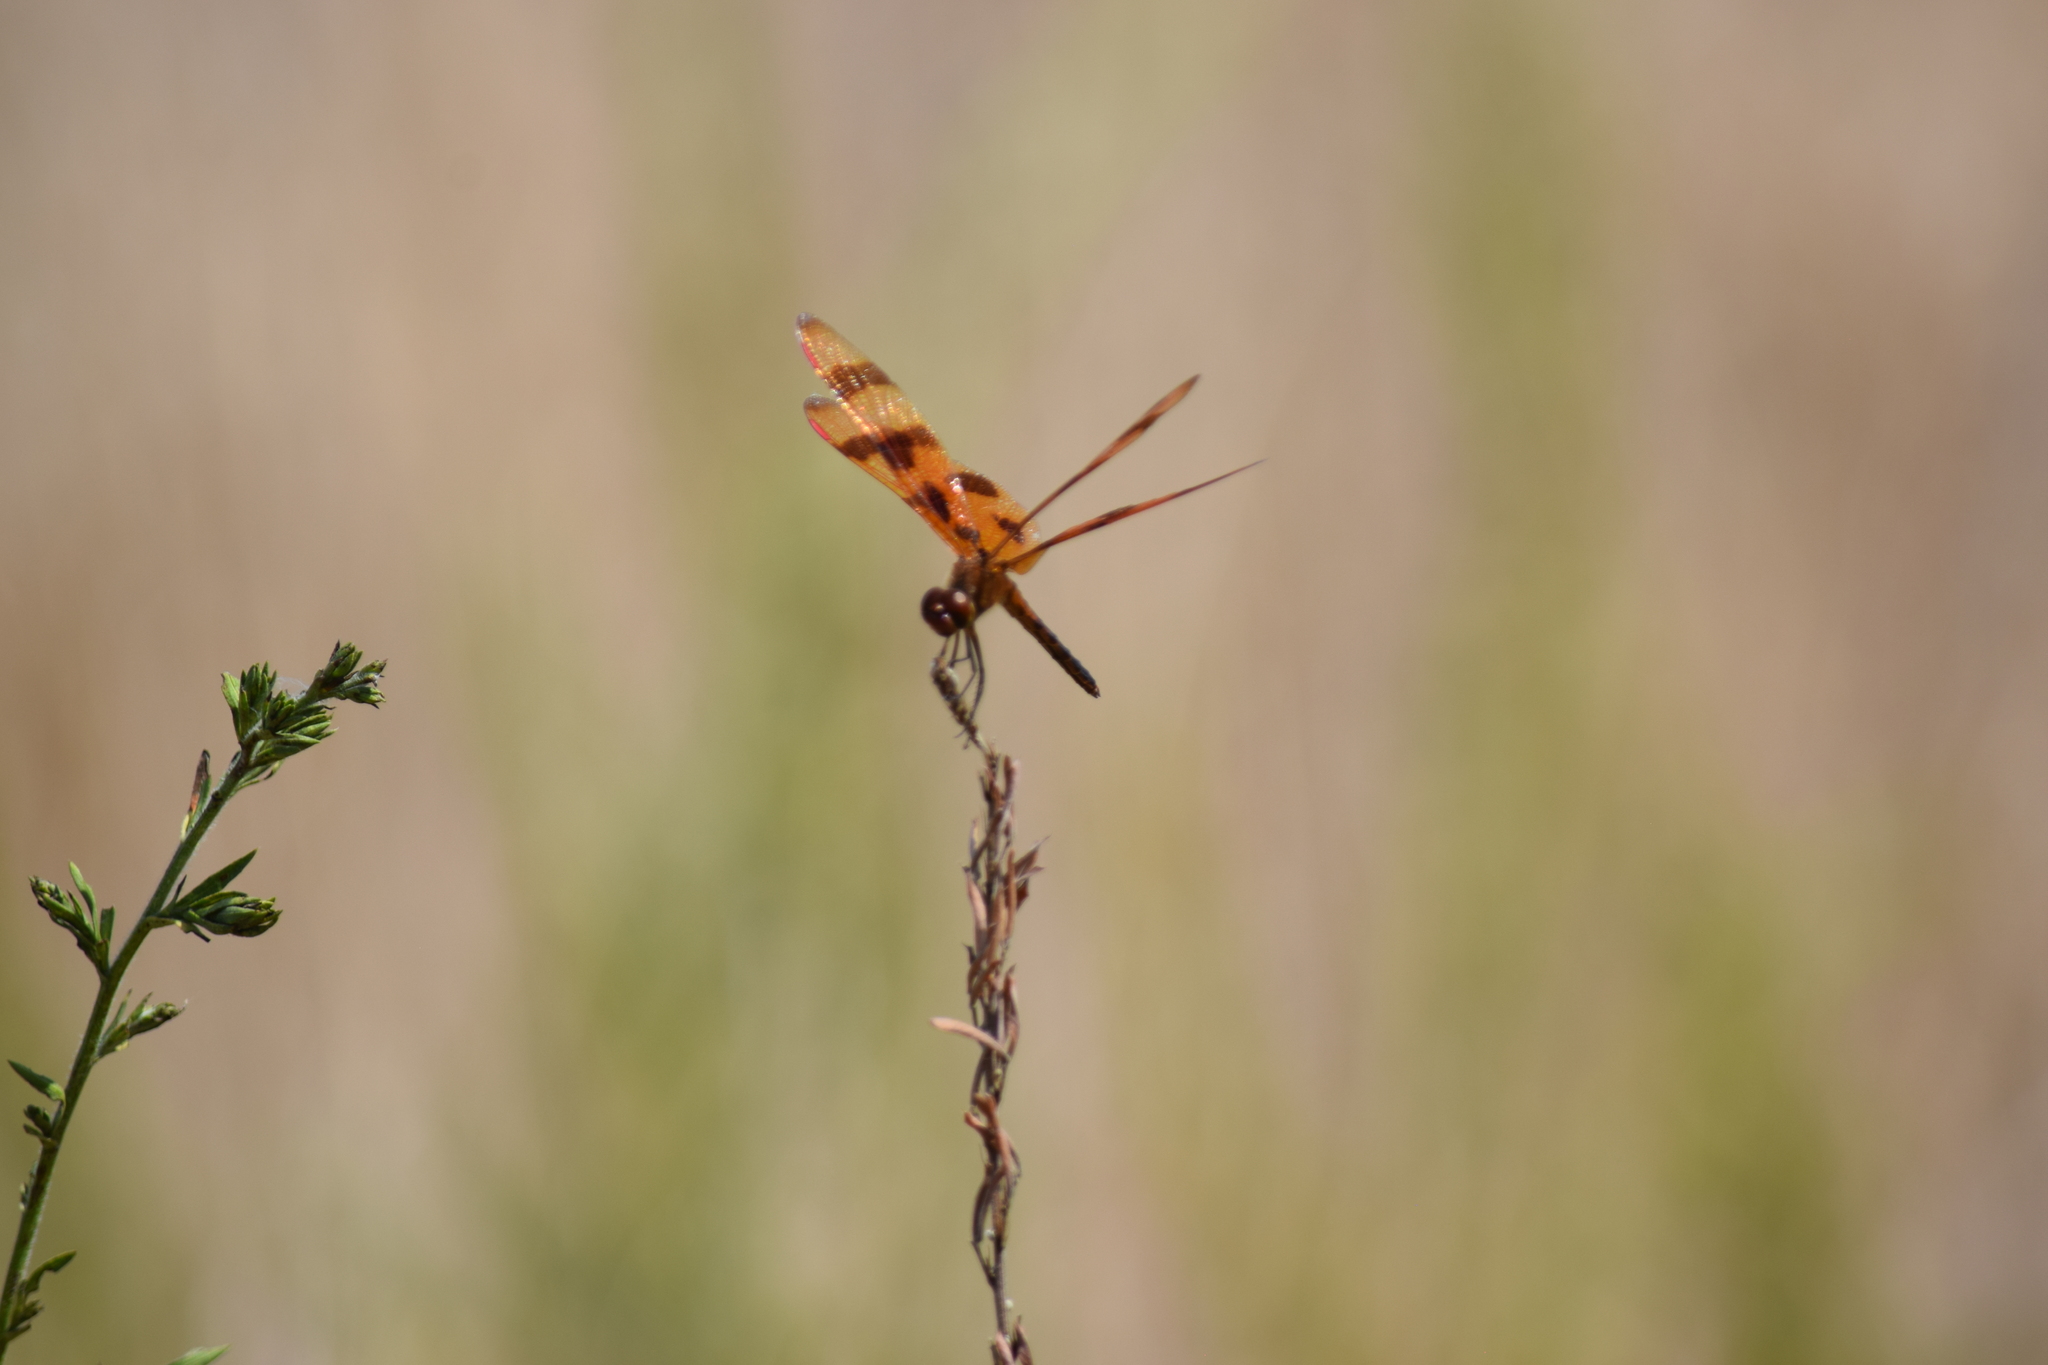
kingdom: Animalia
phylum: Arthropoda
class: Insecta
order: Odonata
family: Libellulidae
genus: Celithemis
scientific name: Celithemis eponina
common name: Halloween pennant
